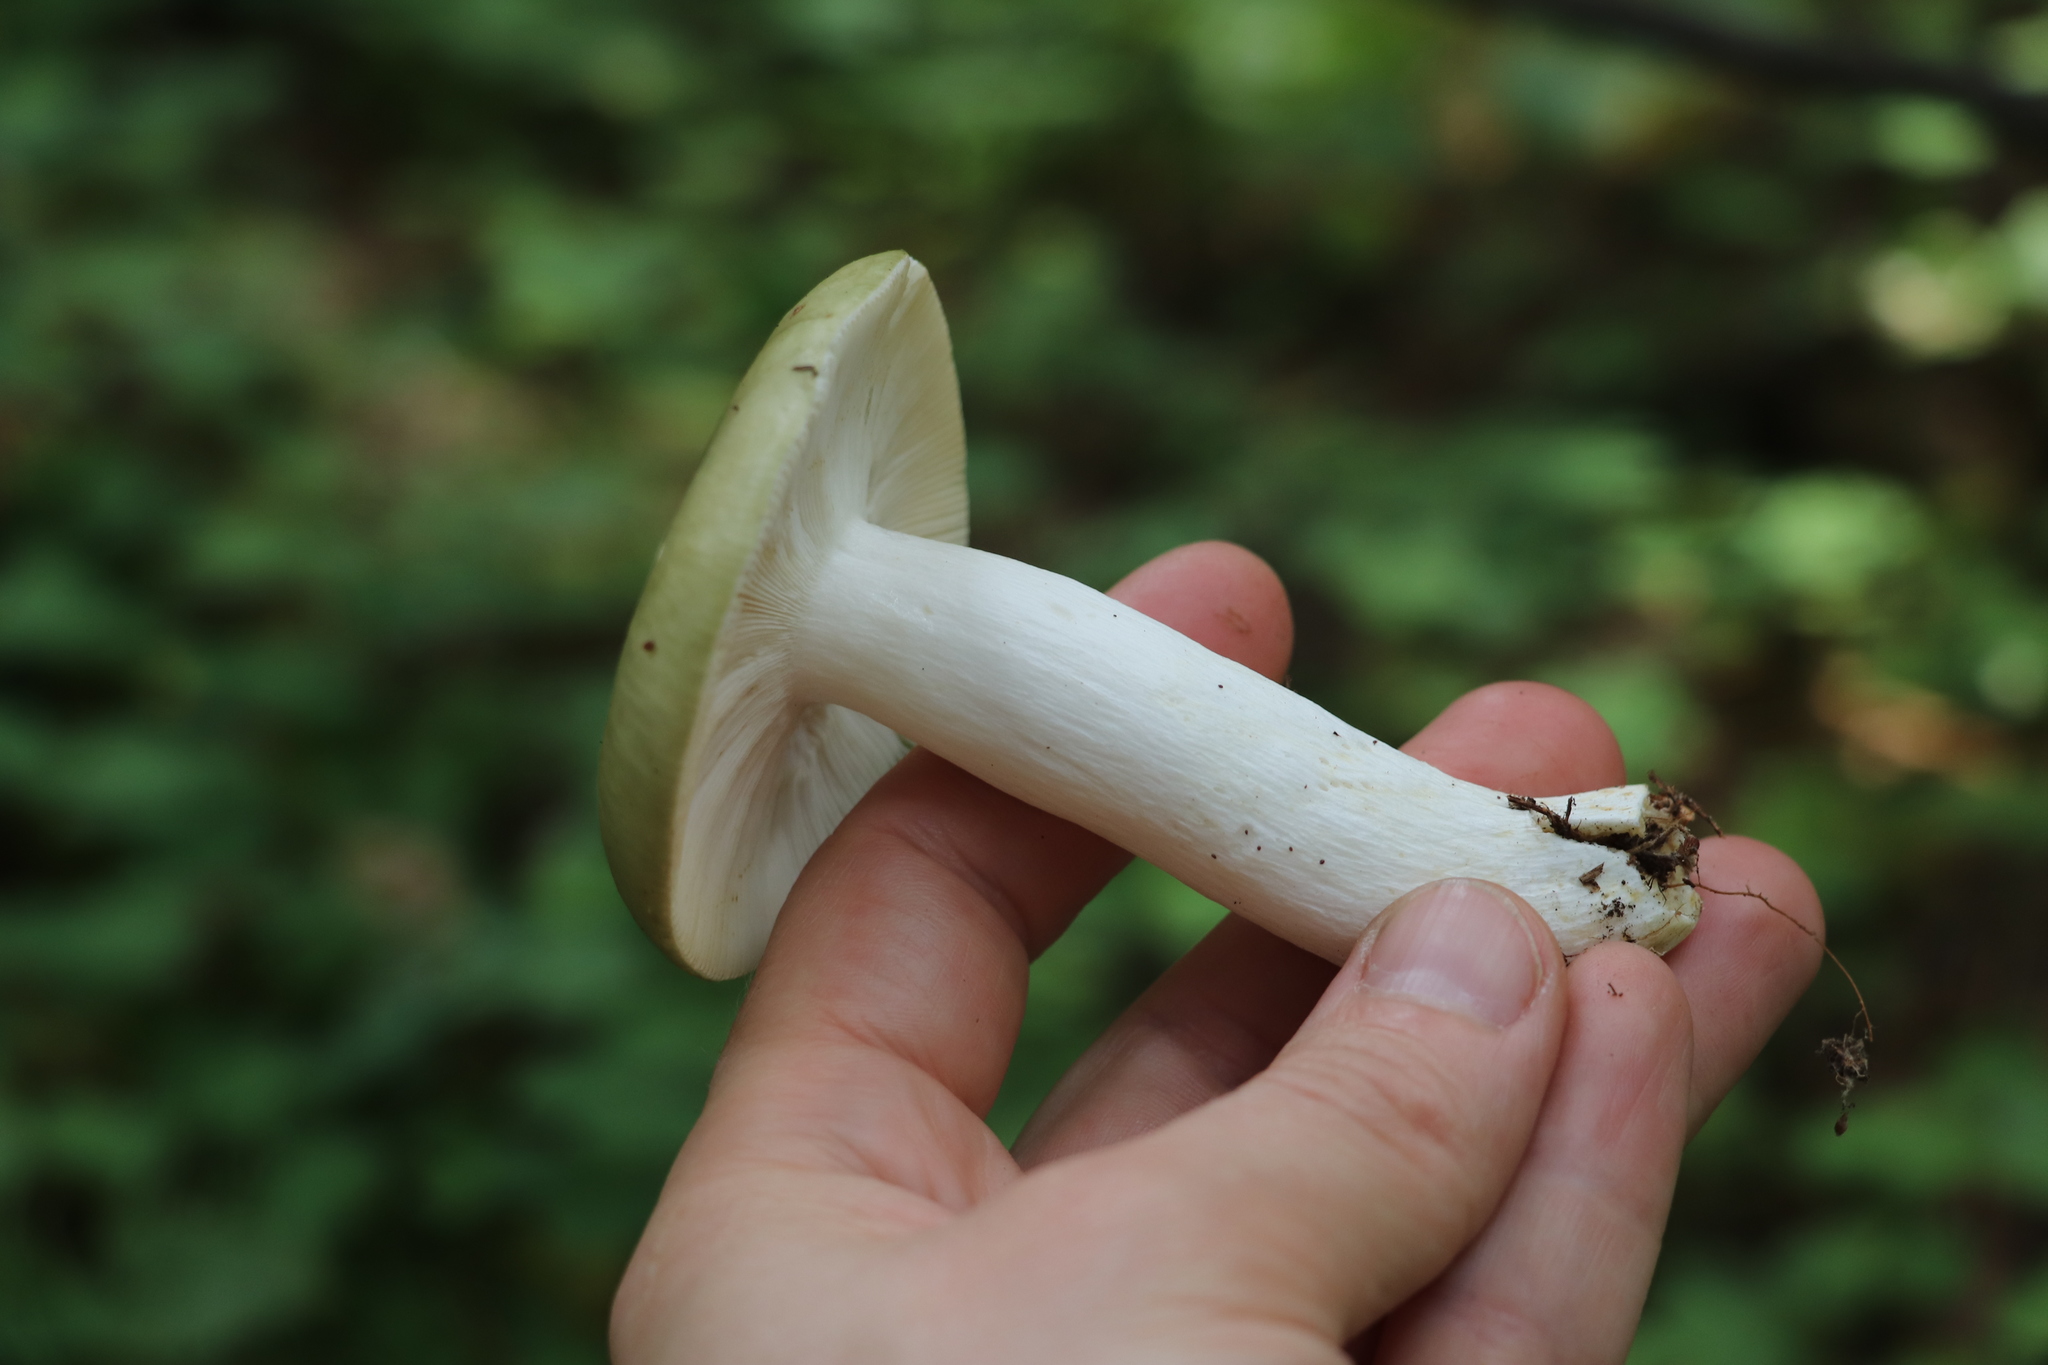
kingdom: Fungi
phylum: Basidiomycota
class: Agaricomycetes
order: Russulales
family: Russulaceae
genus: Russula
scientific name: Russula aeruginea
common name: Green brittlegill
